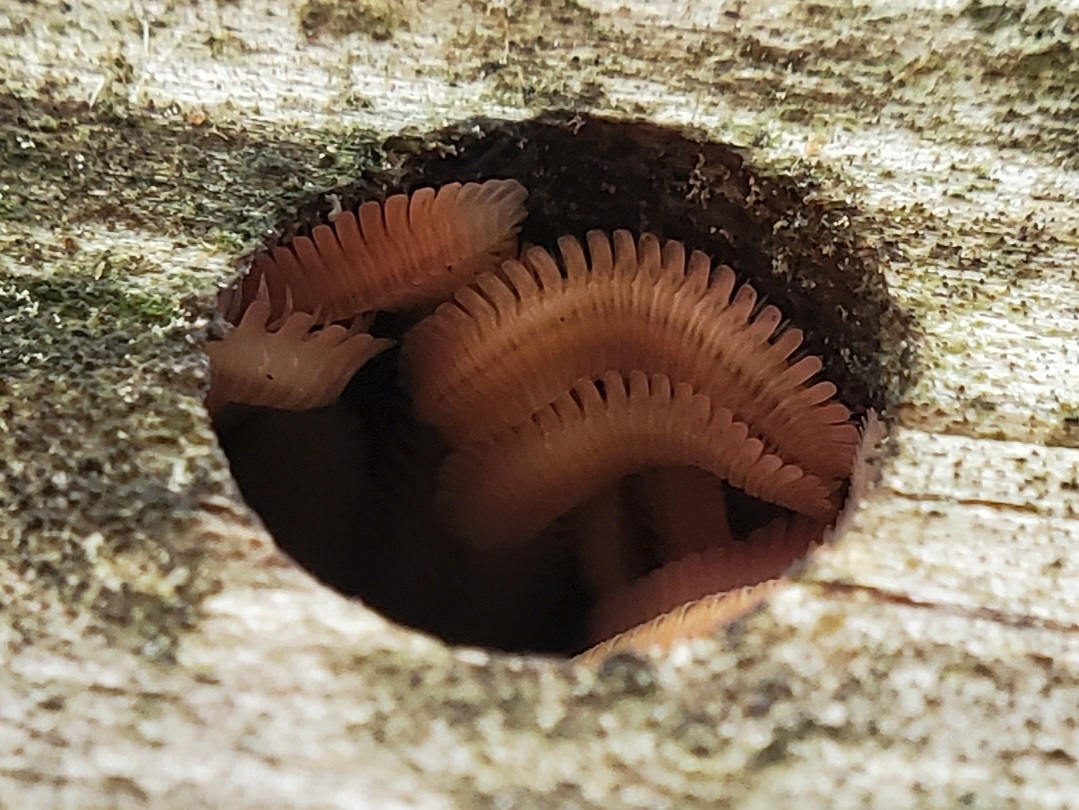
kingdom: Animalia
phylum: Arthropoda
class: Diplopoda
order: Platydesmida
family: Andrognathidae
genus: Brachycybe
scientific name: Brachycybe lecontii
